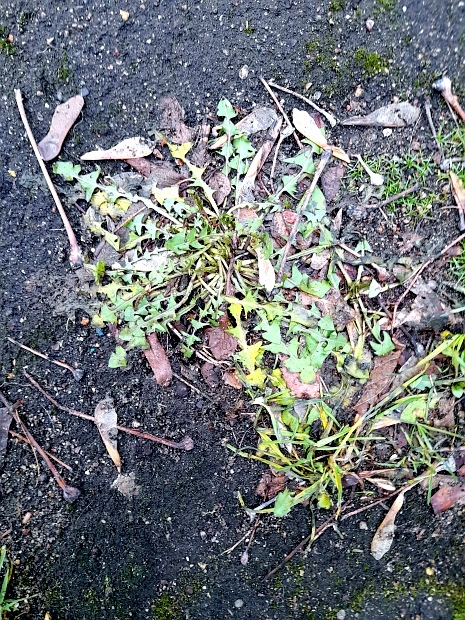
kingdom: Plantae
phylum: Tracheophyta
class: Magnoliopsida
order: Asterales
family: Asteraceae
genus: Taraxacum
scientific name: Taraxacum officinale
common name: Common dandelion
